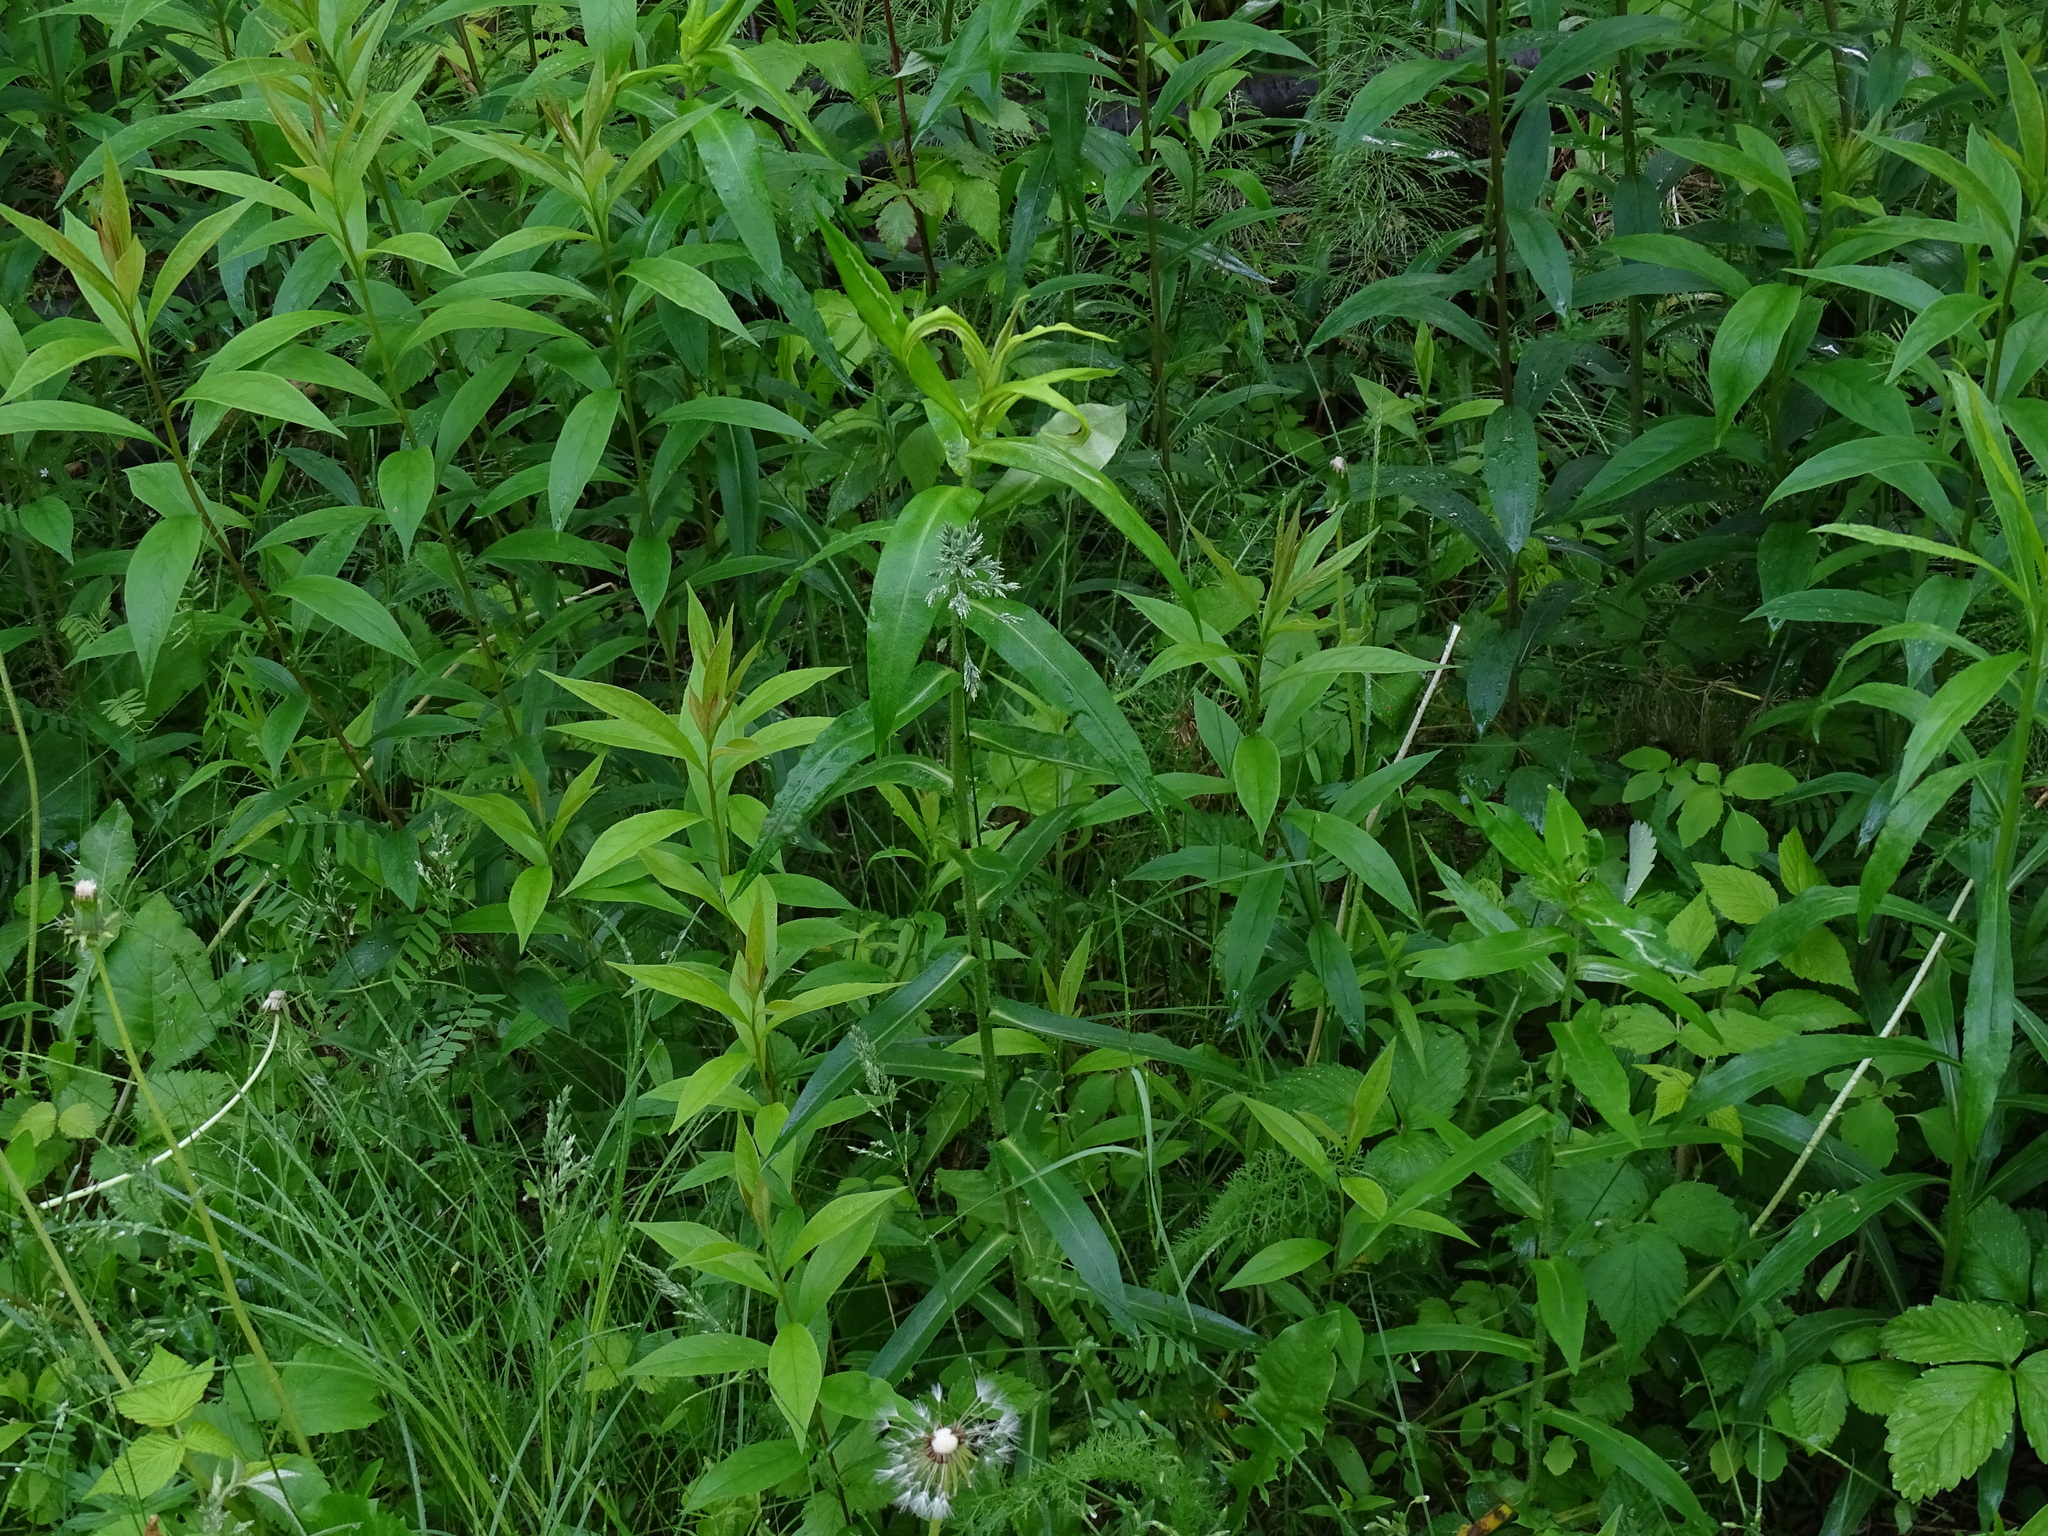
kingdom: Plantae
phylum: Tracheophyta
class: Magnoliopsida
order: Asterales
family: Asteraceae
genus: Symphyotrichum
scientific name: Symphyotrichum puniceum
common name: Bog aster
